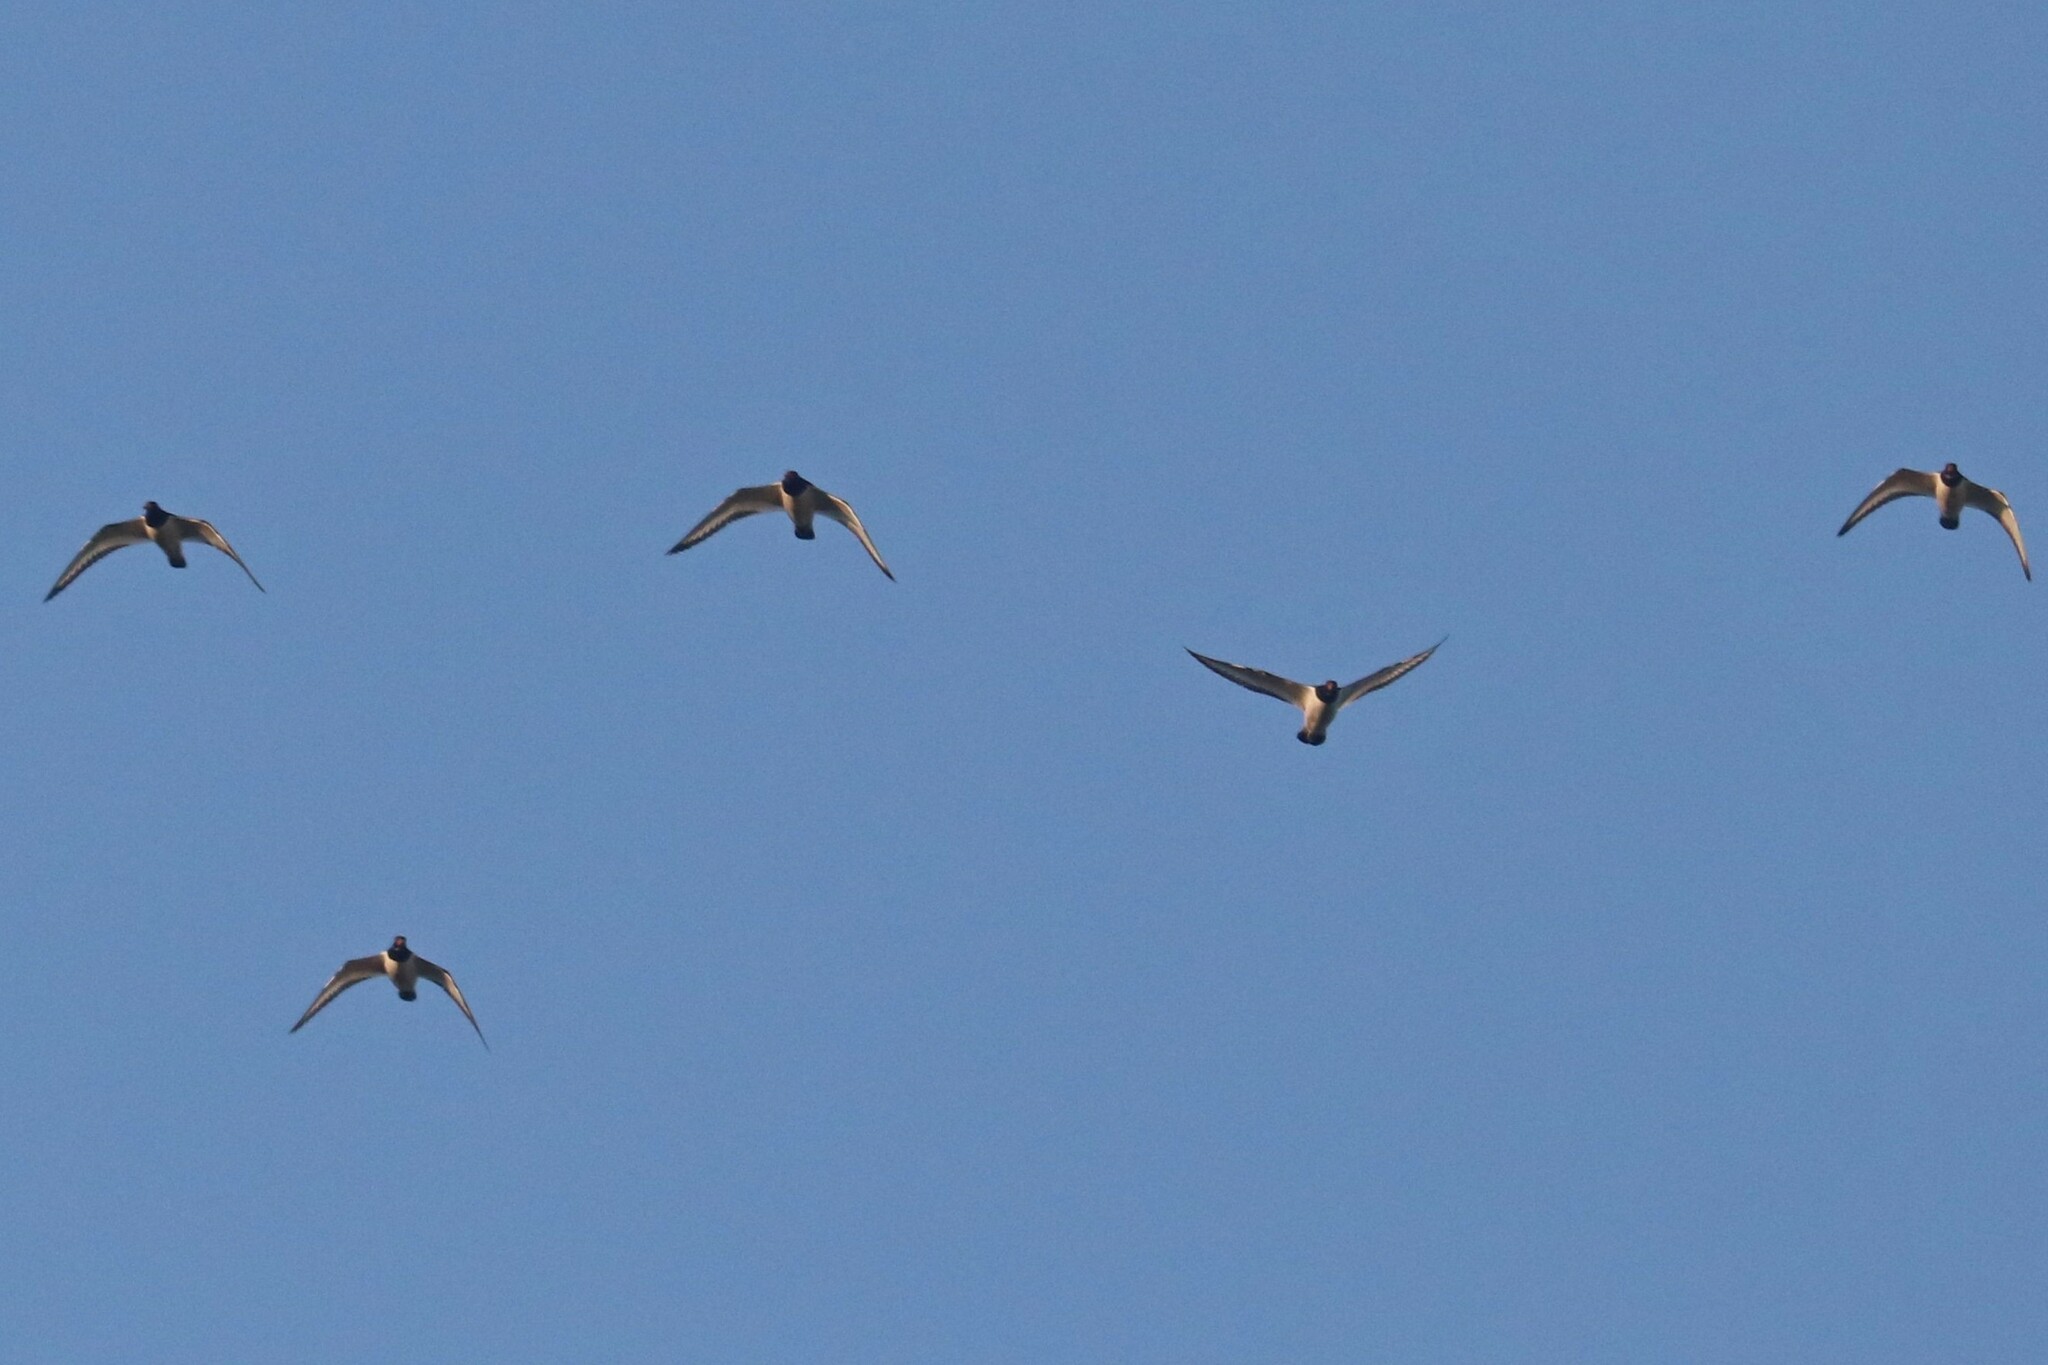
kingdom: Animalia
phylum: Chordata
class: Aves
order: Charadriiformes
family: Haematopodidae
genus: Haematopus
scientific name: Haematopus ostralegus
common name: Eurasian oystercatcher
